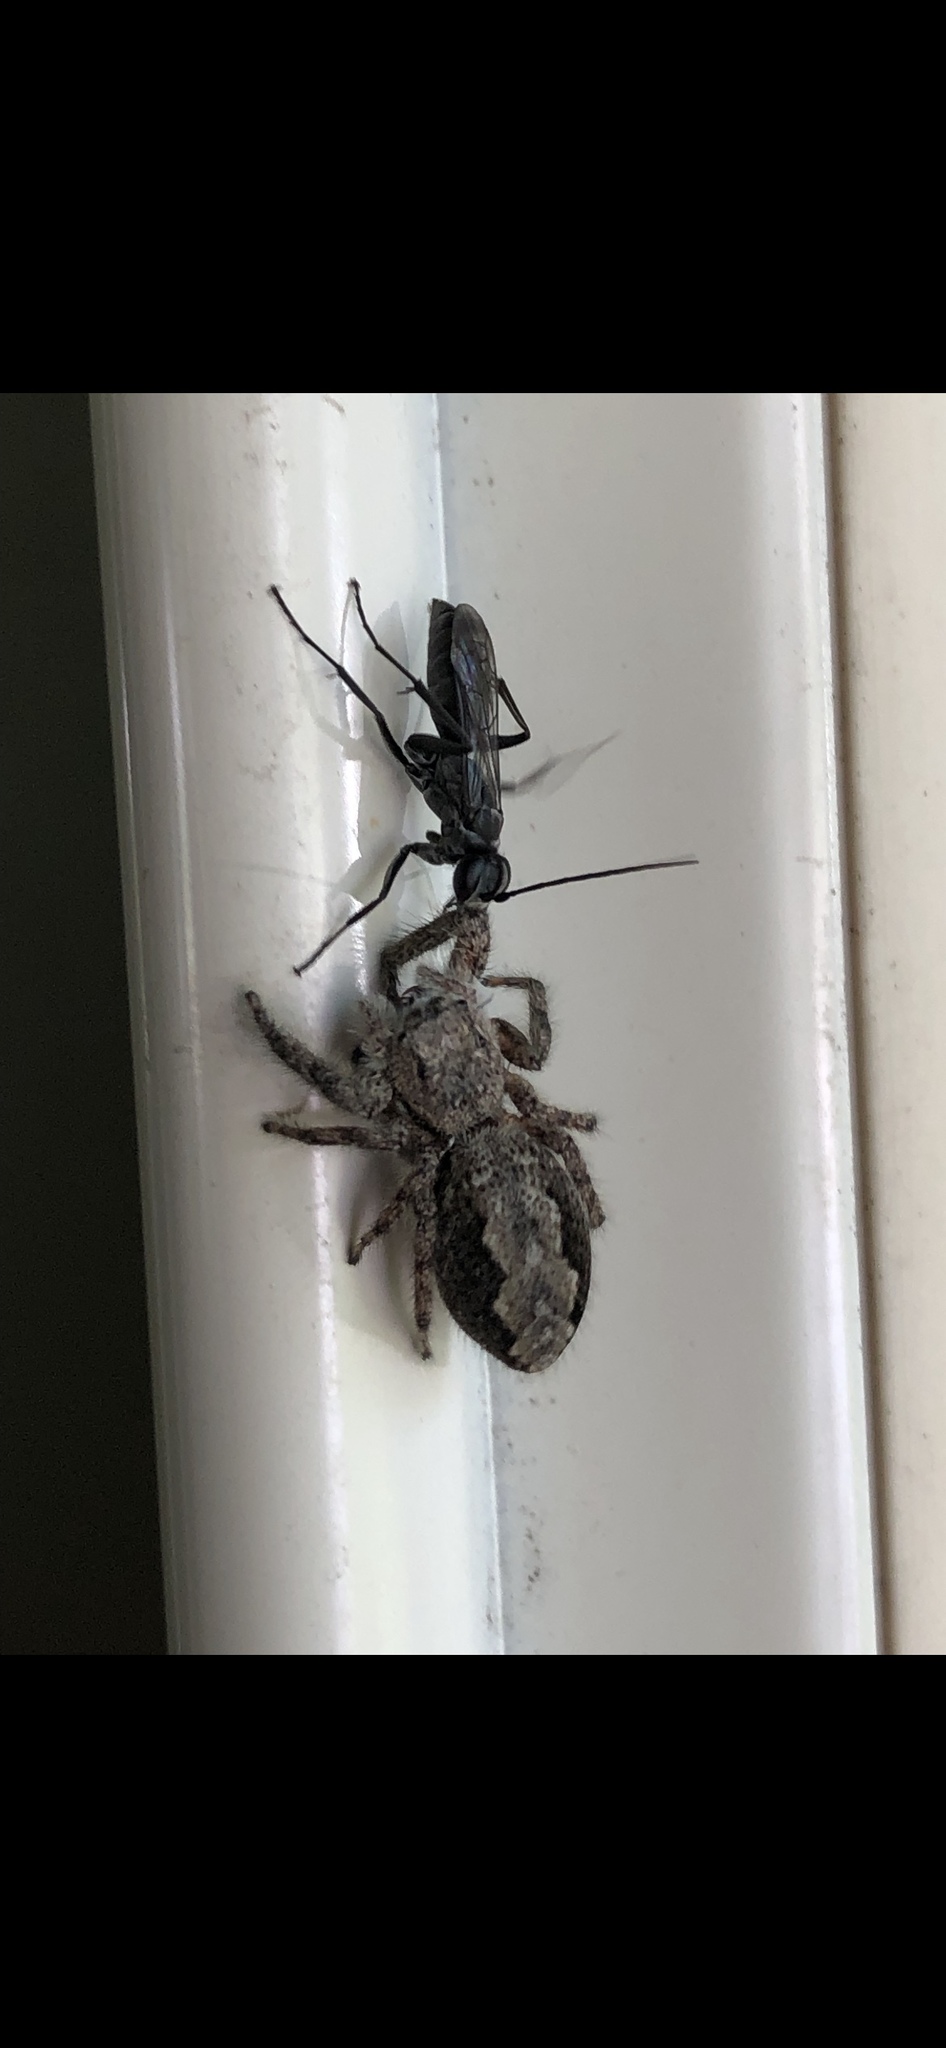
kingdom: Animalia
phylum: Arthropoda
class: Arachnida
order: Araneae
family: Salticidae
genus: Platycryptus
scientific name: Platycryptus undatus
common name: Tan jumping spider
